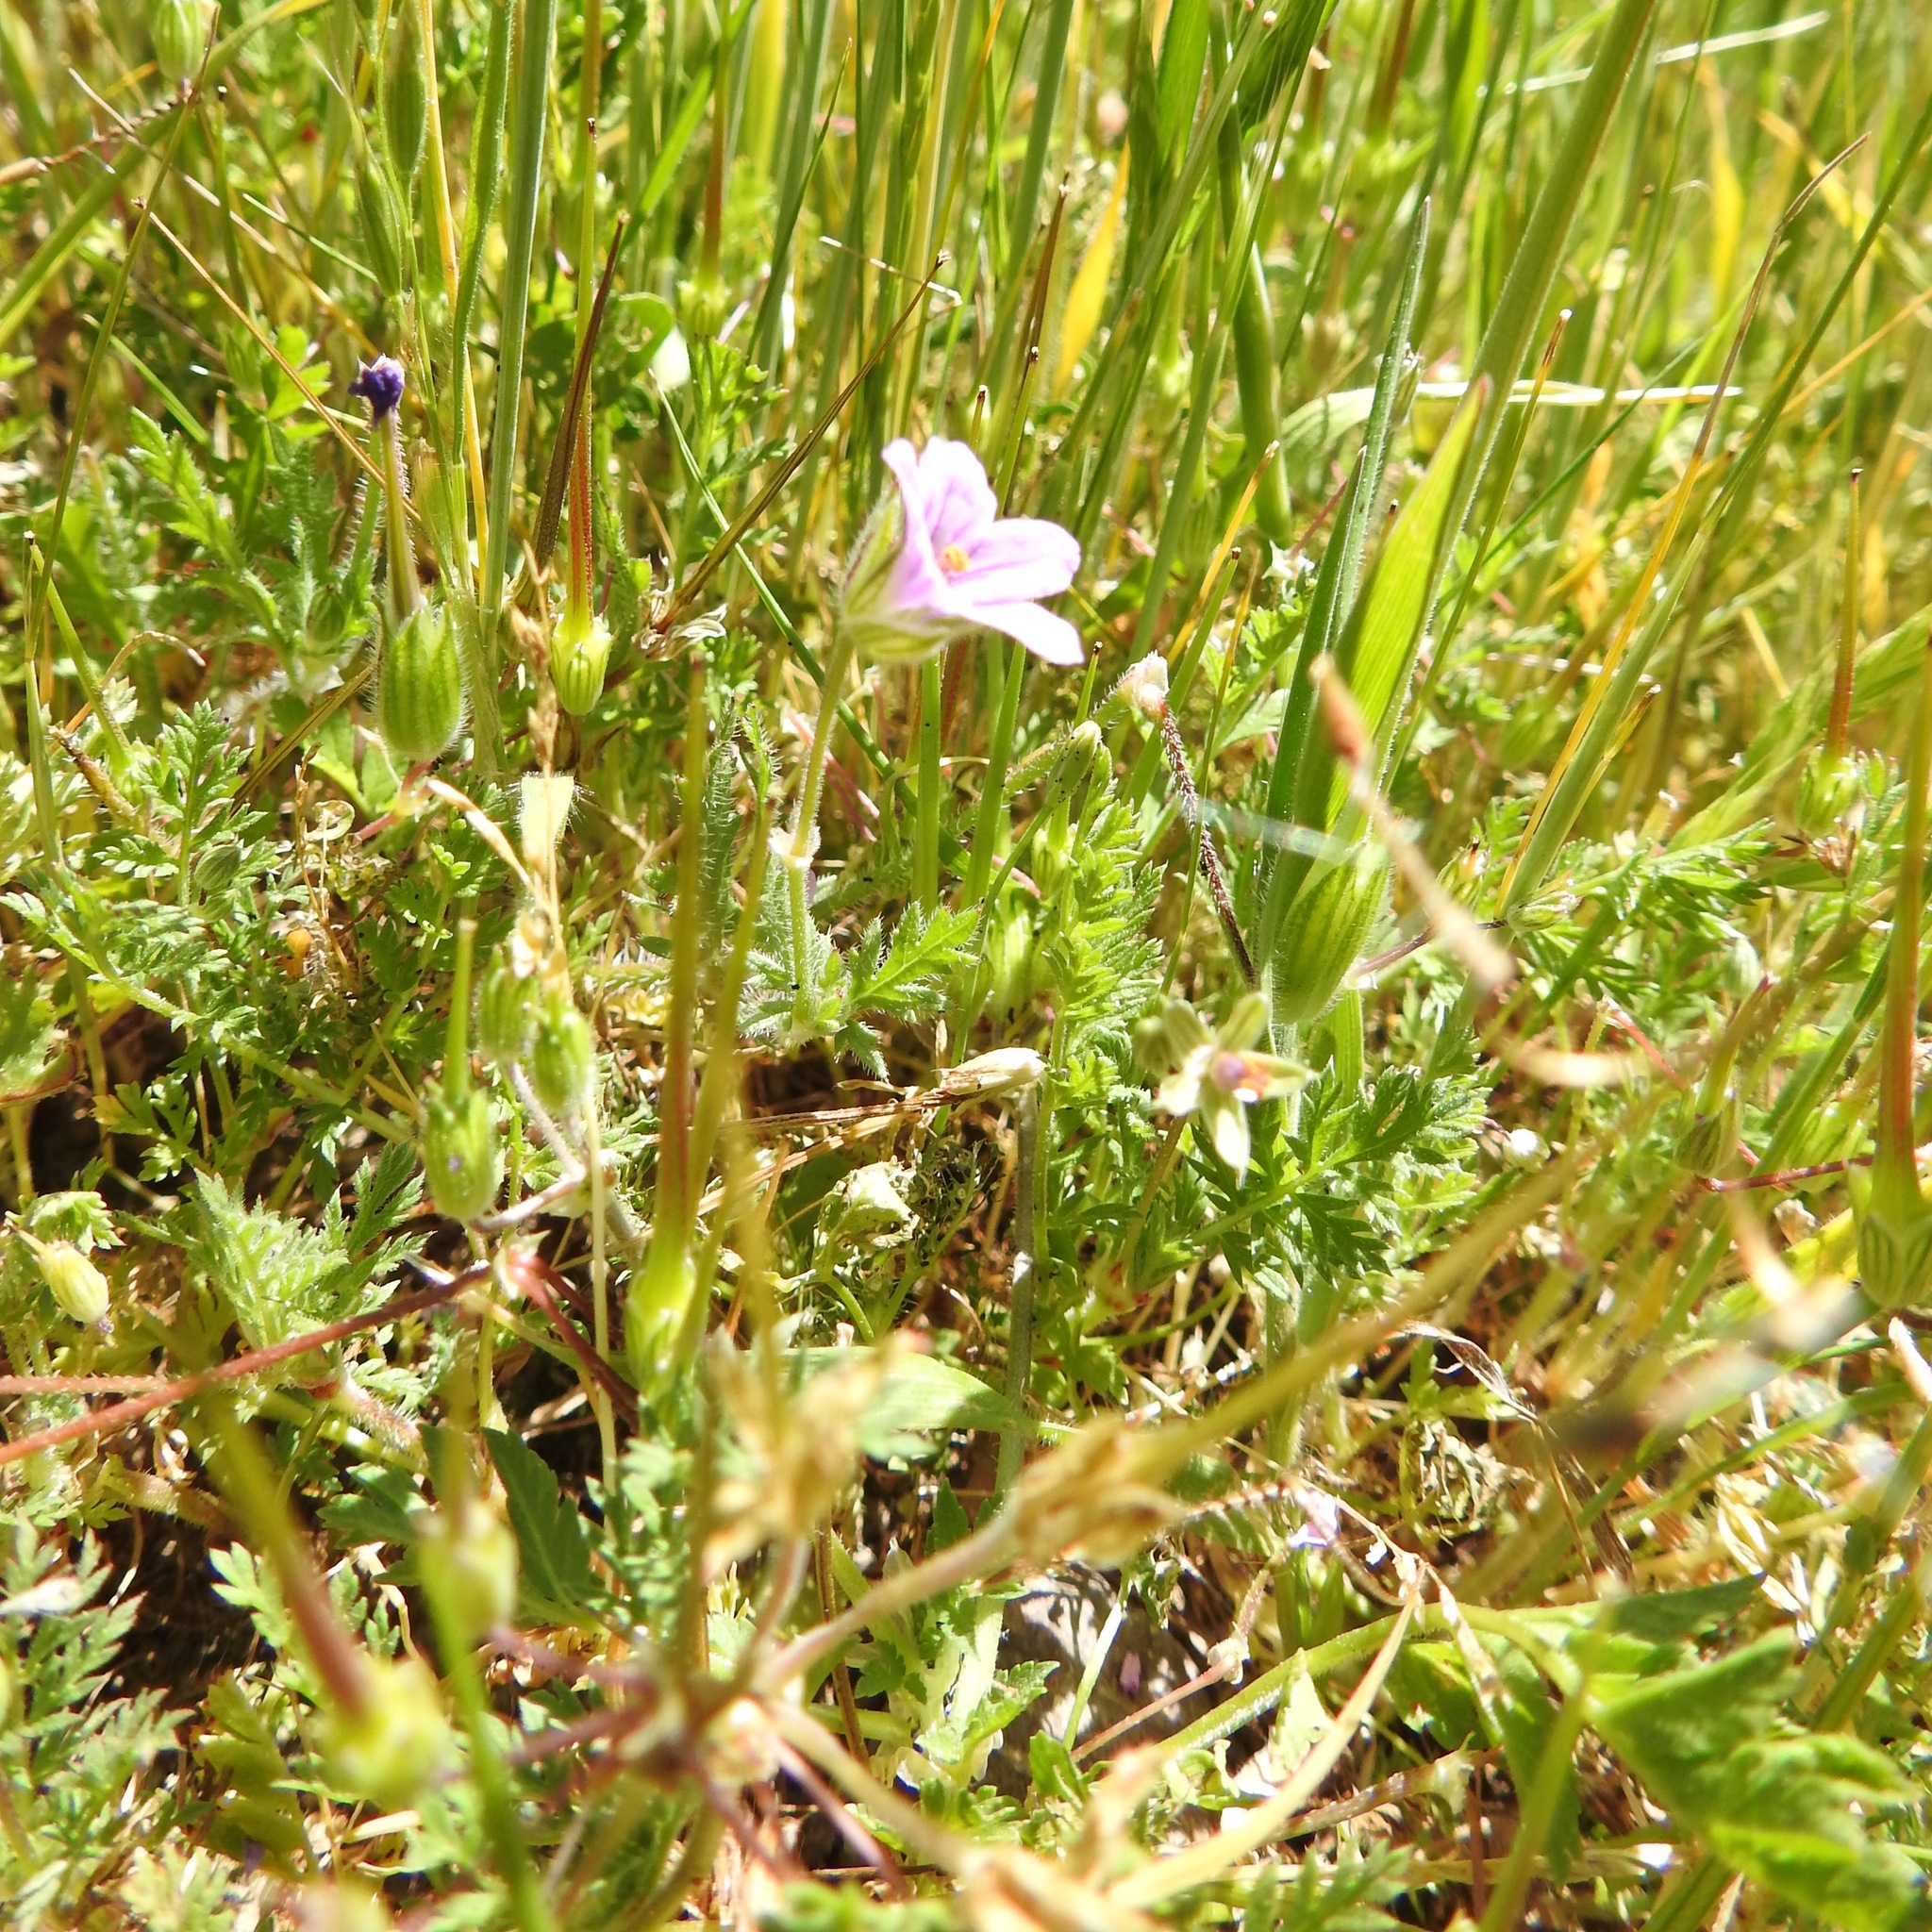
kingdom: Plantae
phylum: Tracheophyta
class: Magnoliopsida
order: Geraniales
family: Geraniaceae
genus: Erodium
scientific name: Erodium botrys
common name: Mediterranean stork's-bill
